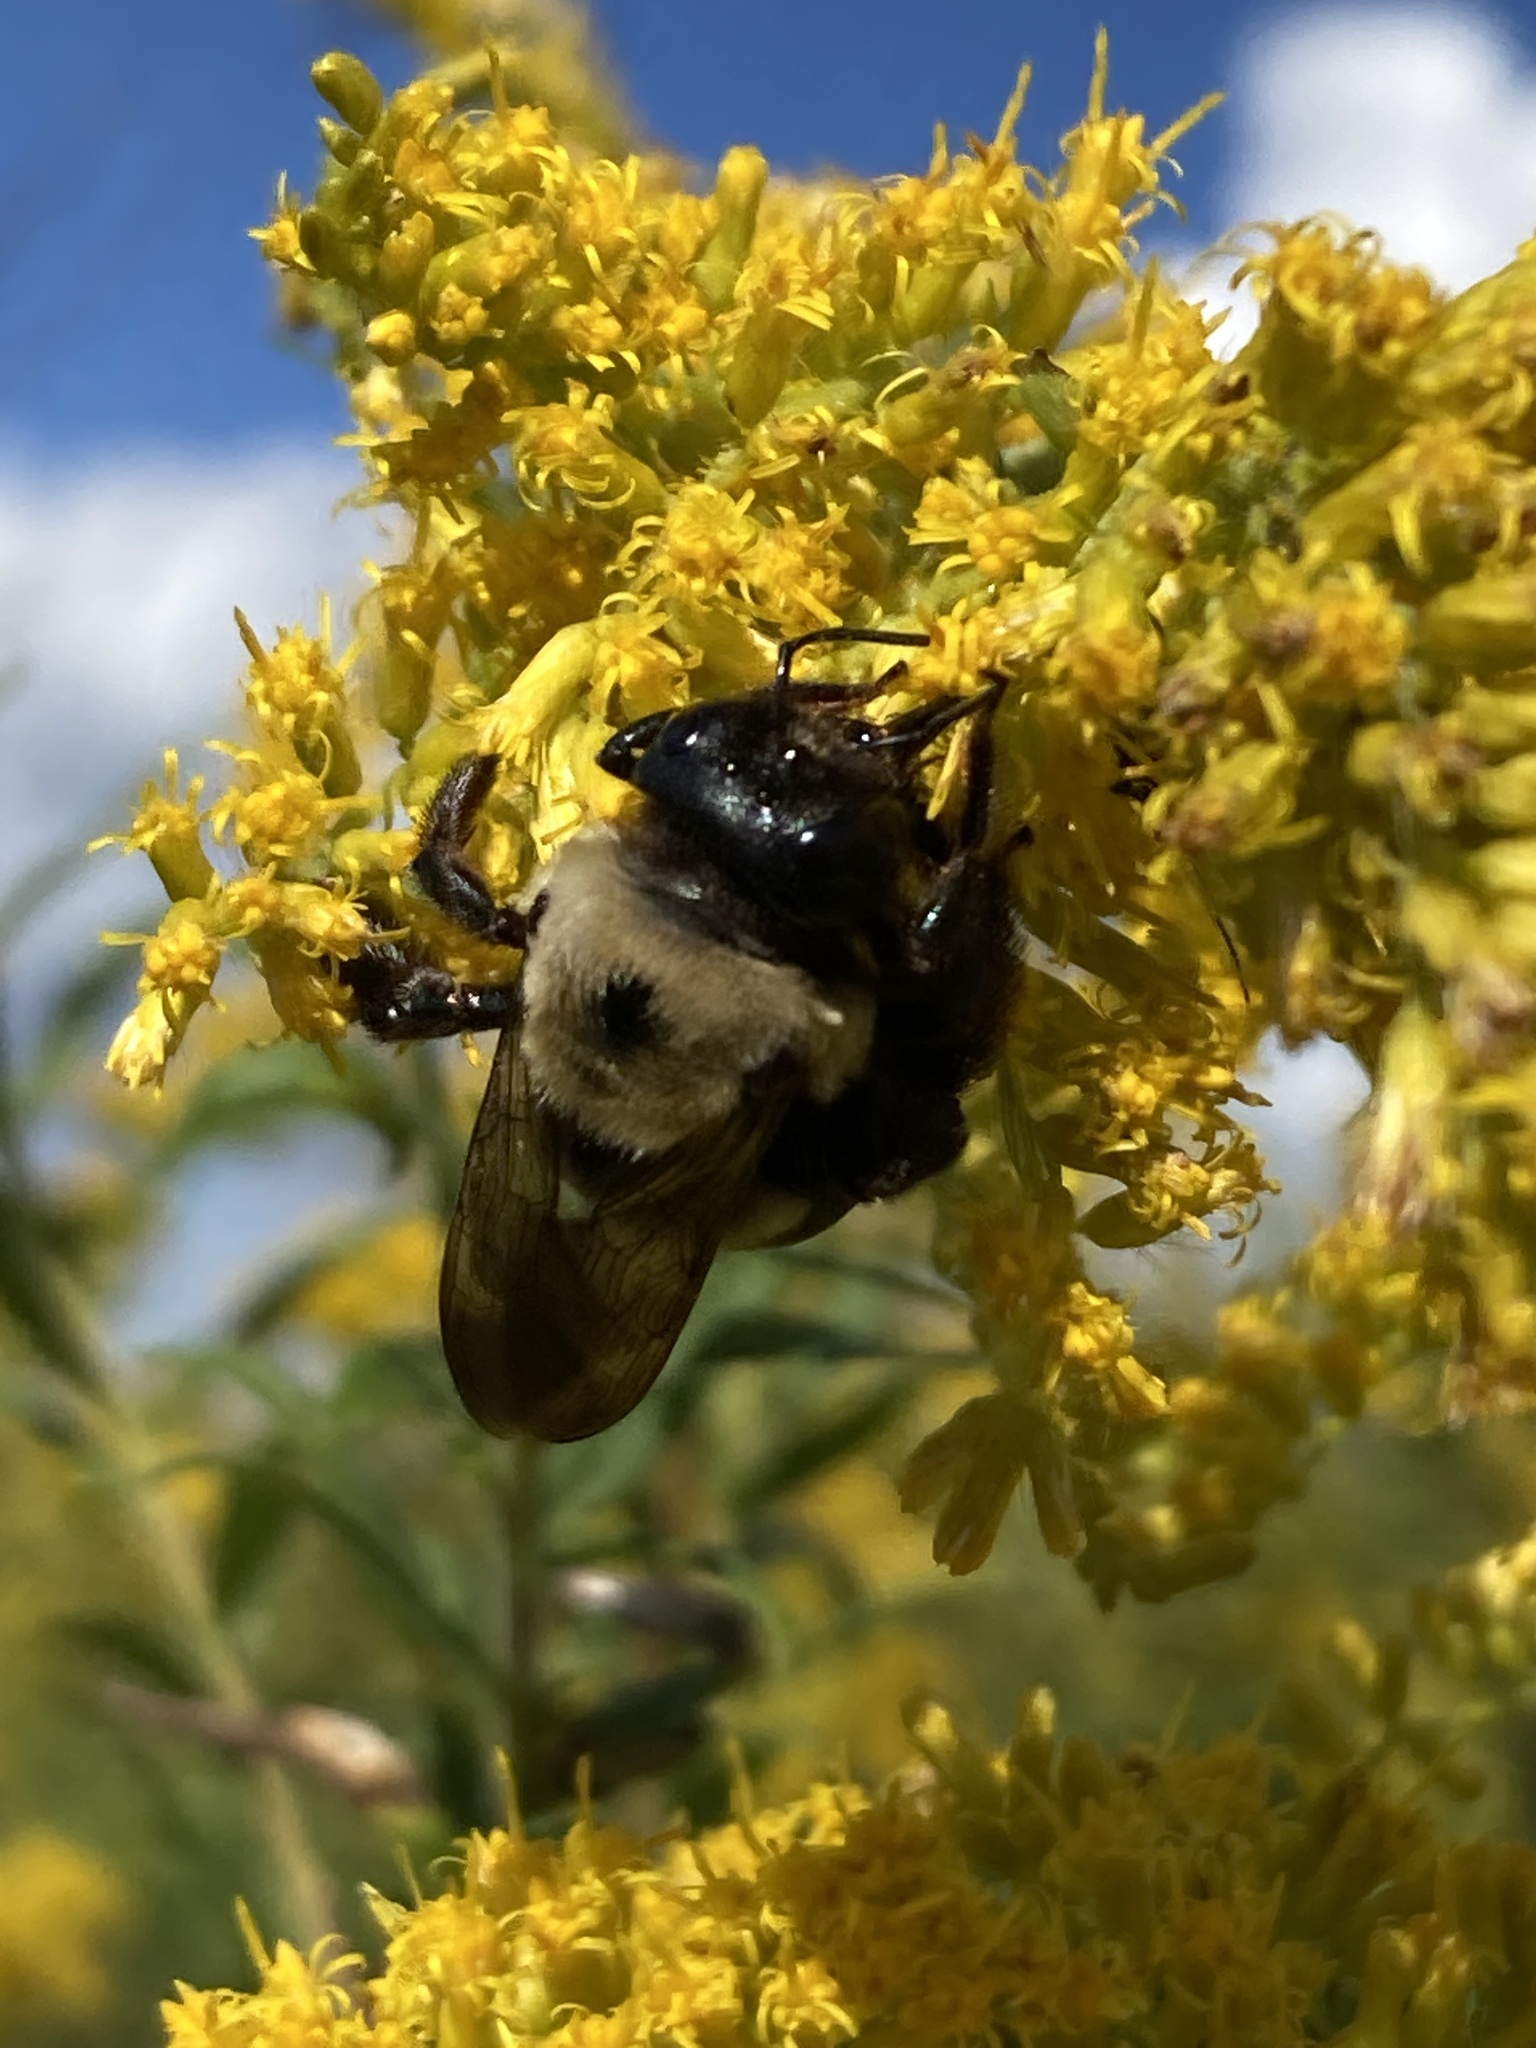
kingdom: Animalia
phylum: Arthropoda
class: Insecta
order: Hymenoptera
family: Apidae
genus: Xylocopa
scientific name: Xylocopa virginica
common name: Carpenter bee
